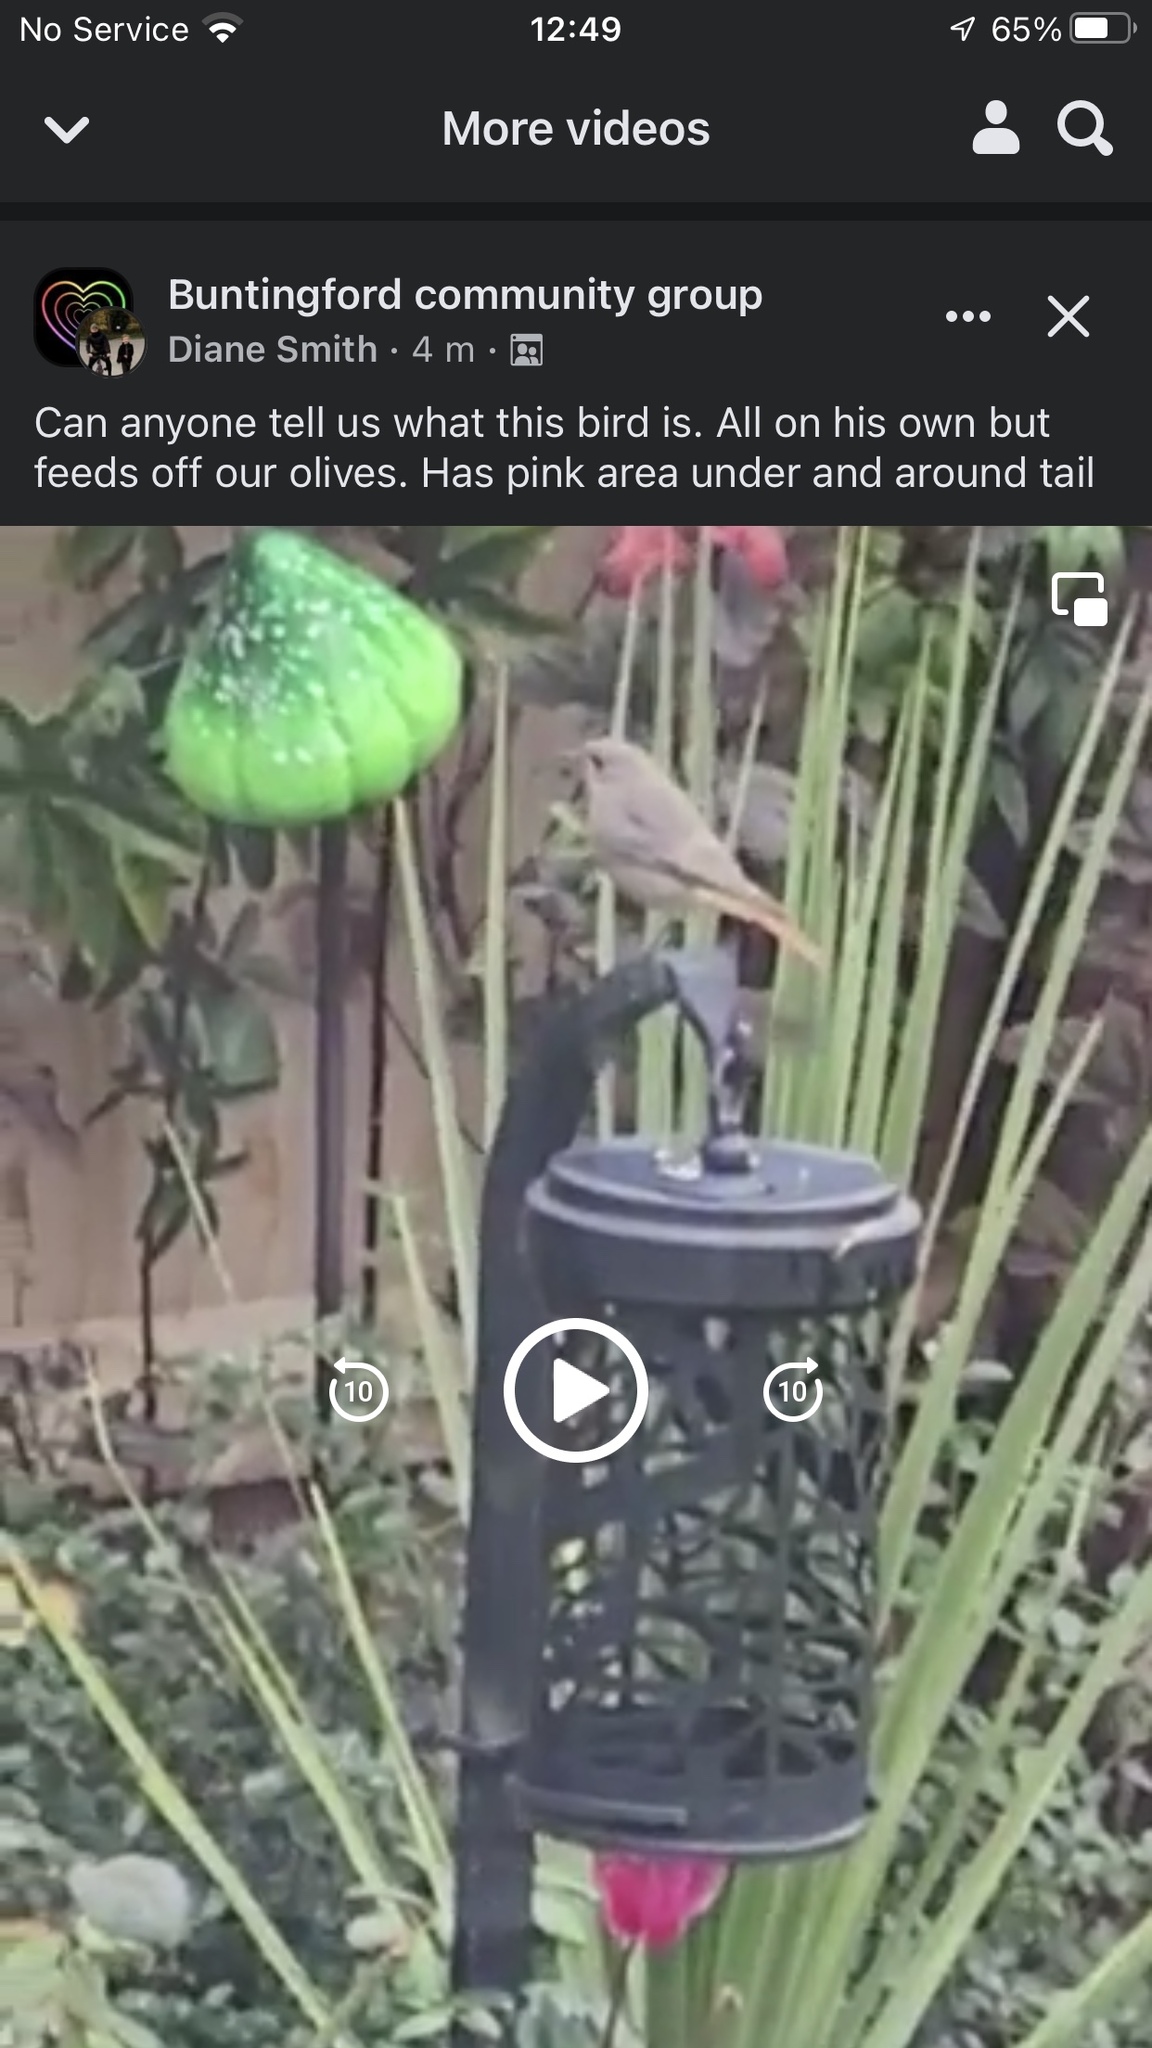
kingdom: Animalia
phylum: Chordata
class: Aves
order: Passeriformes
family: Muscicapidae
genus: Phoenicurus
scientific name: Phoenicurus ochruros
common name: Black redstart
